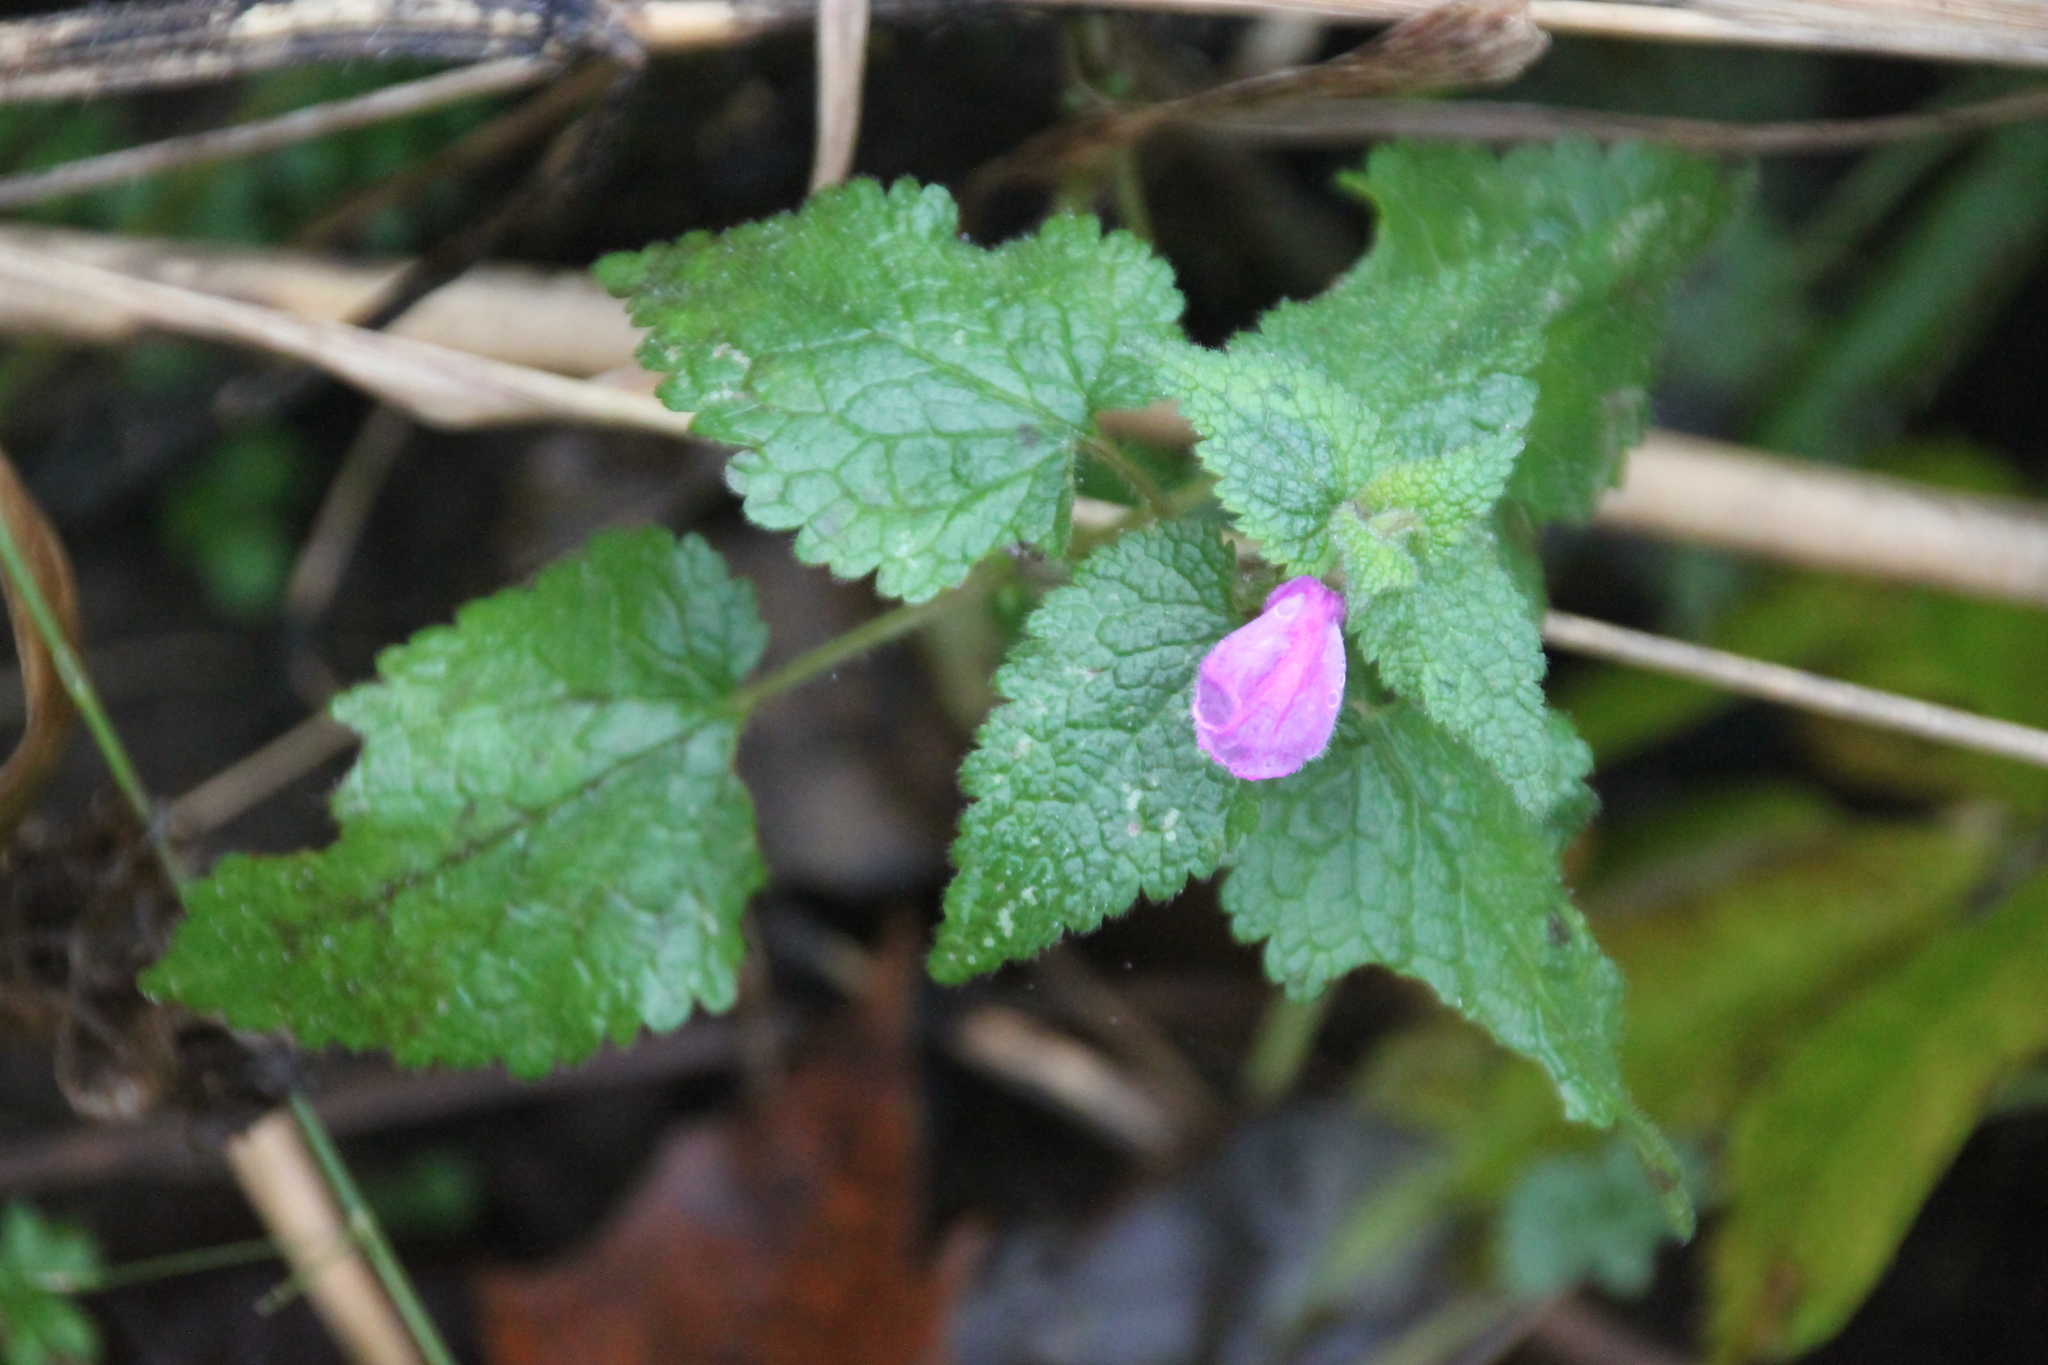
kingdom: Plantae
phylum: Tracheophyta
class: Magnoliopsida
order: Lamiales
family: Lamiaceae
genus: Lamium
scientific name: Lamium maculatum
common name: Spotted dead-nettle
